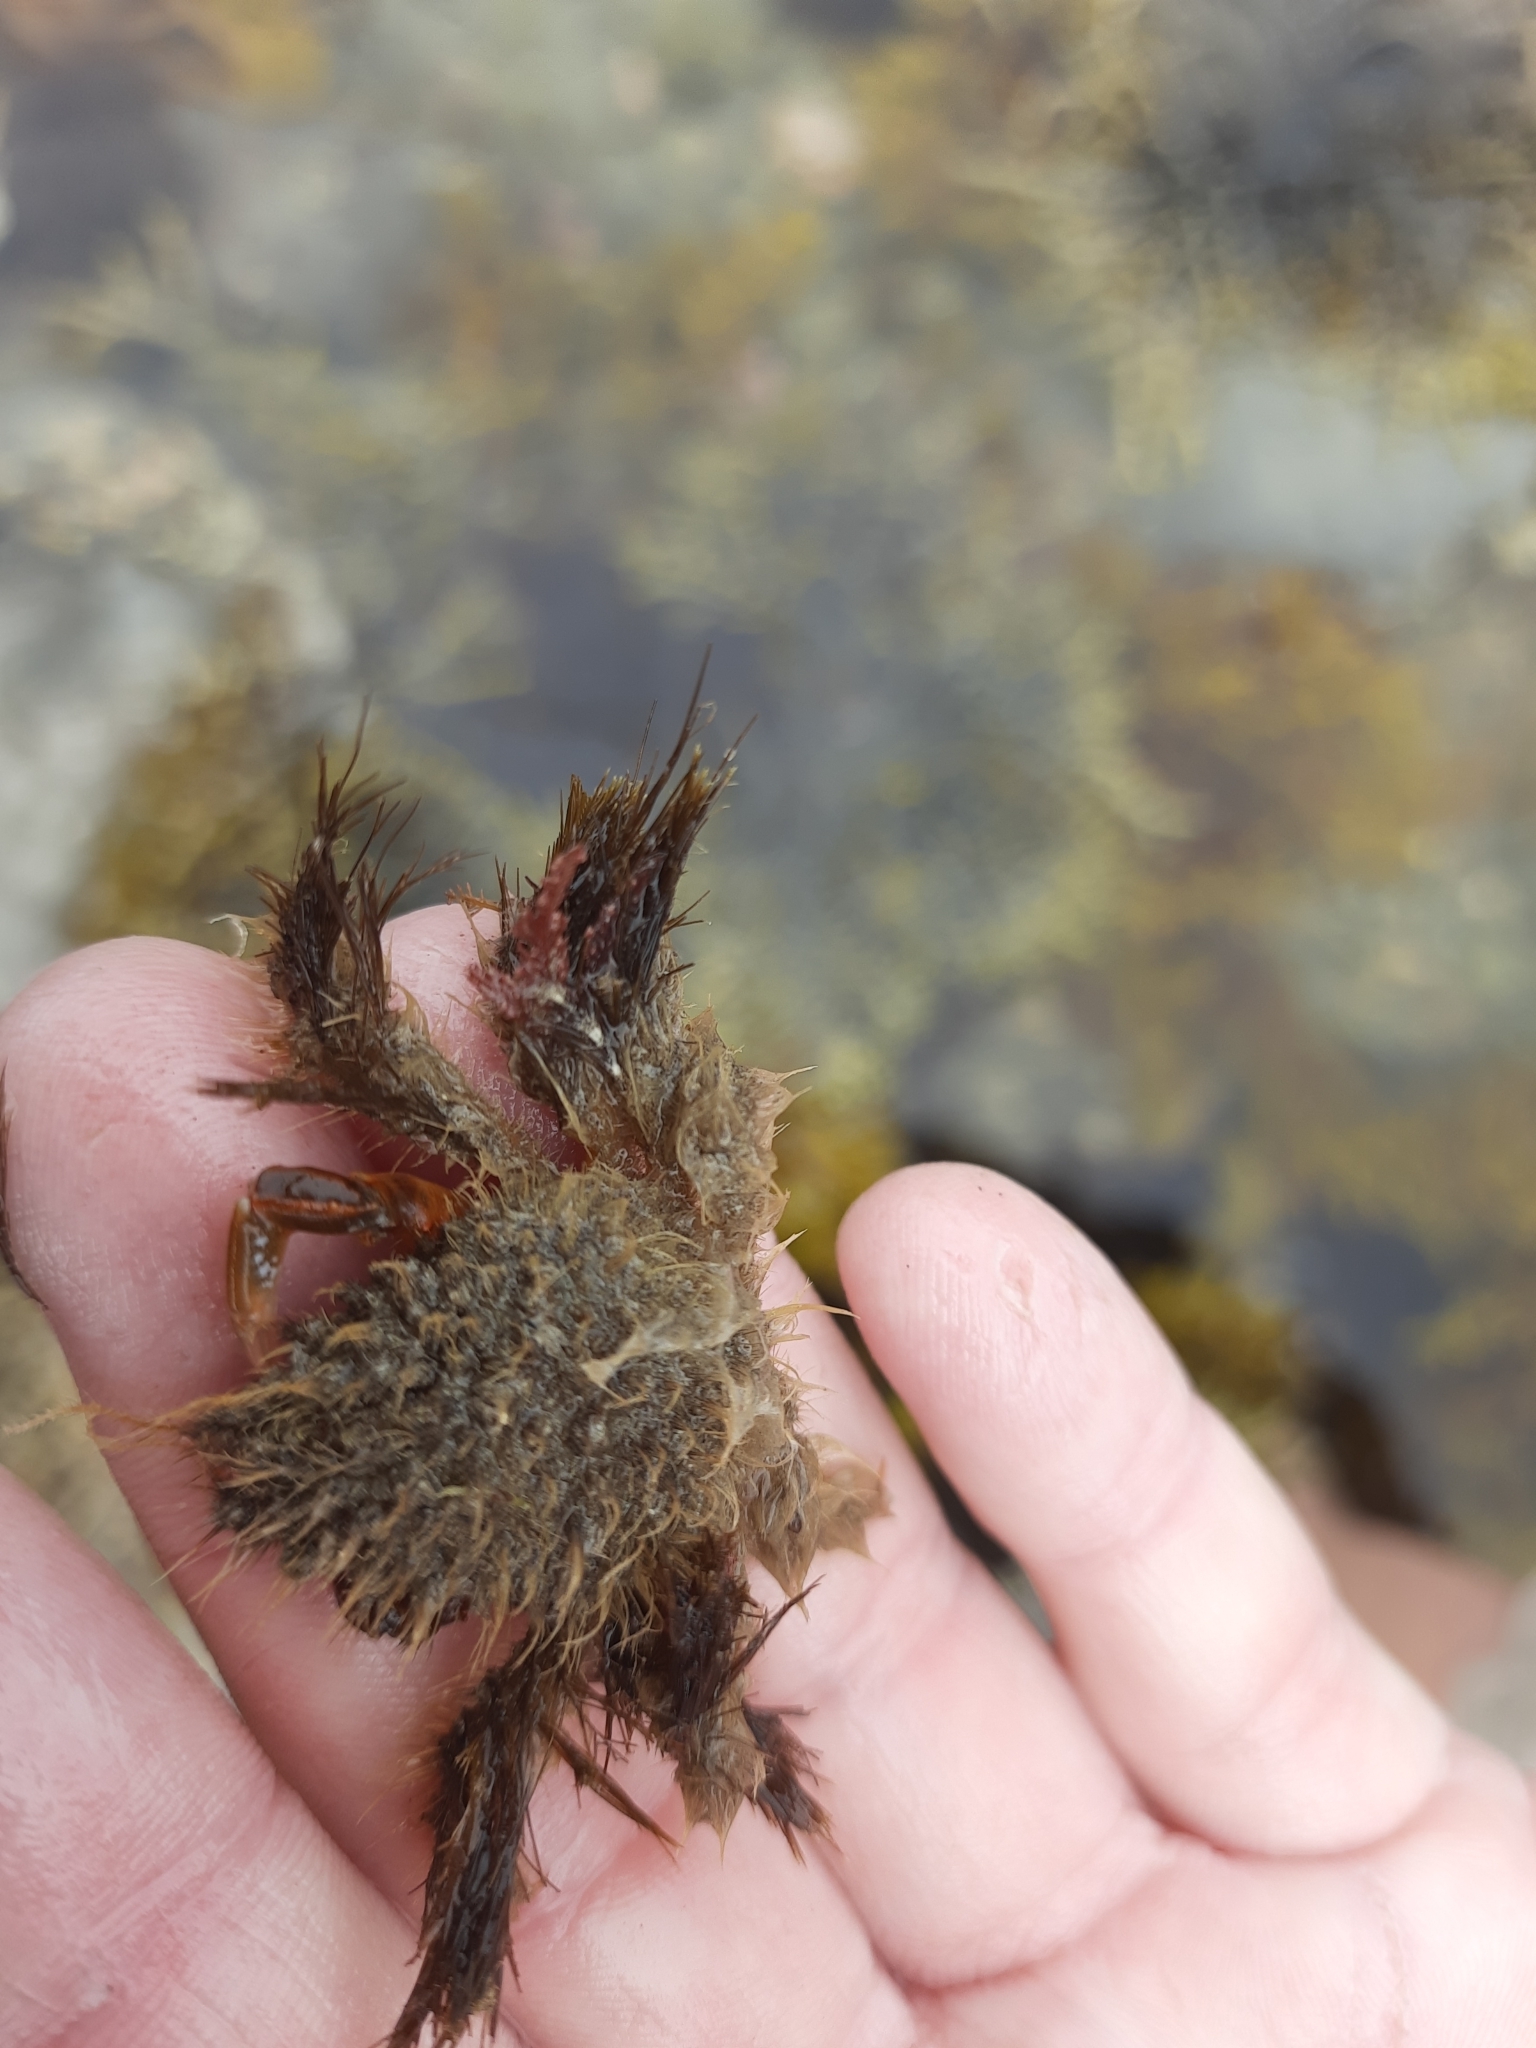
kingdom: Animalia
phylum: Arthropoda
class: Malacostraca
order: Decapoda
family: Majidae
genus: Notomithrax
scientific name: Notomithrax ursus
